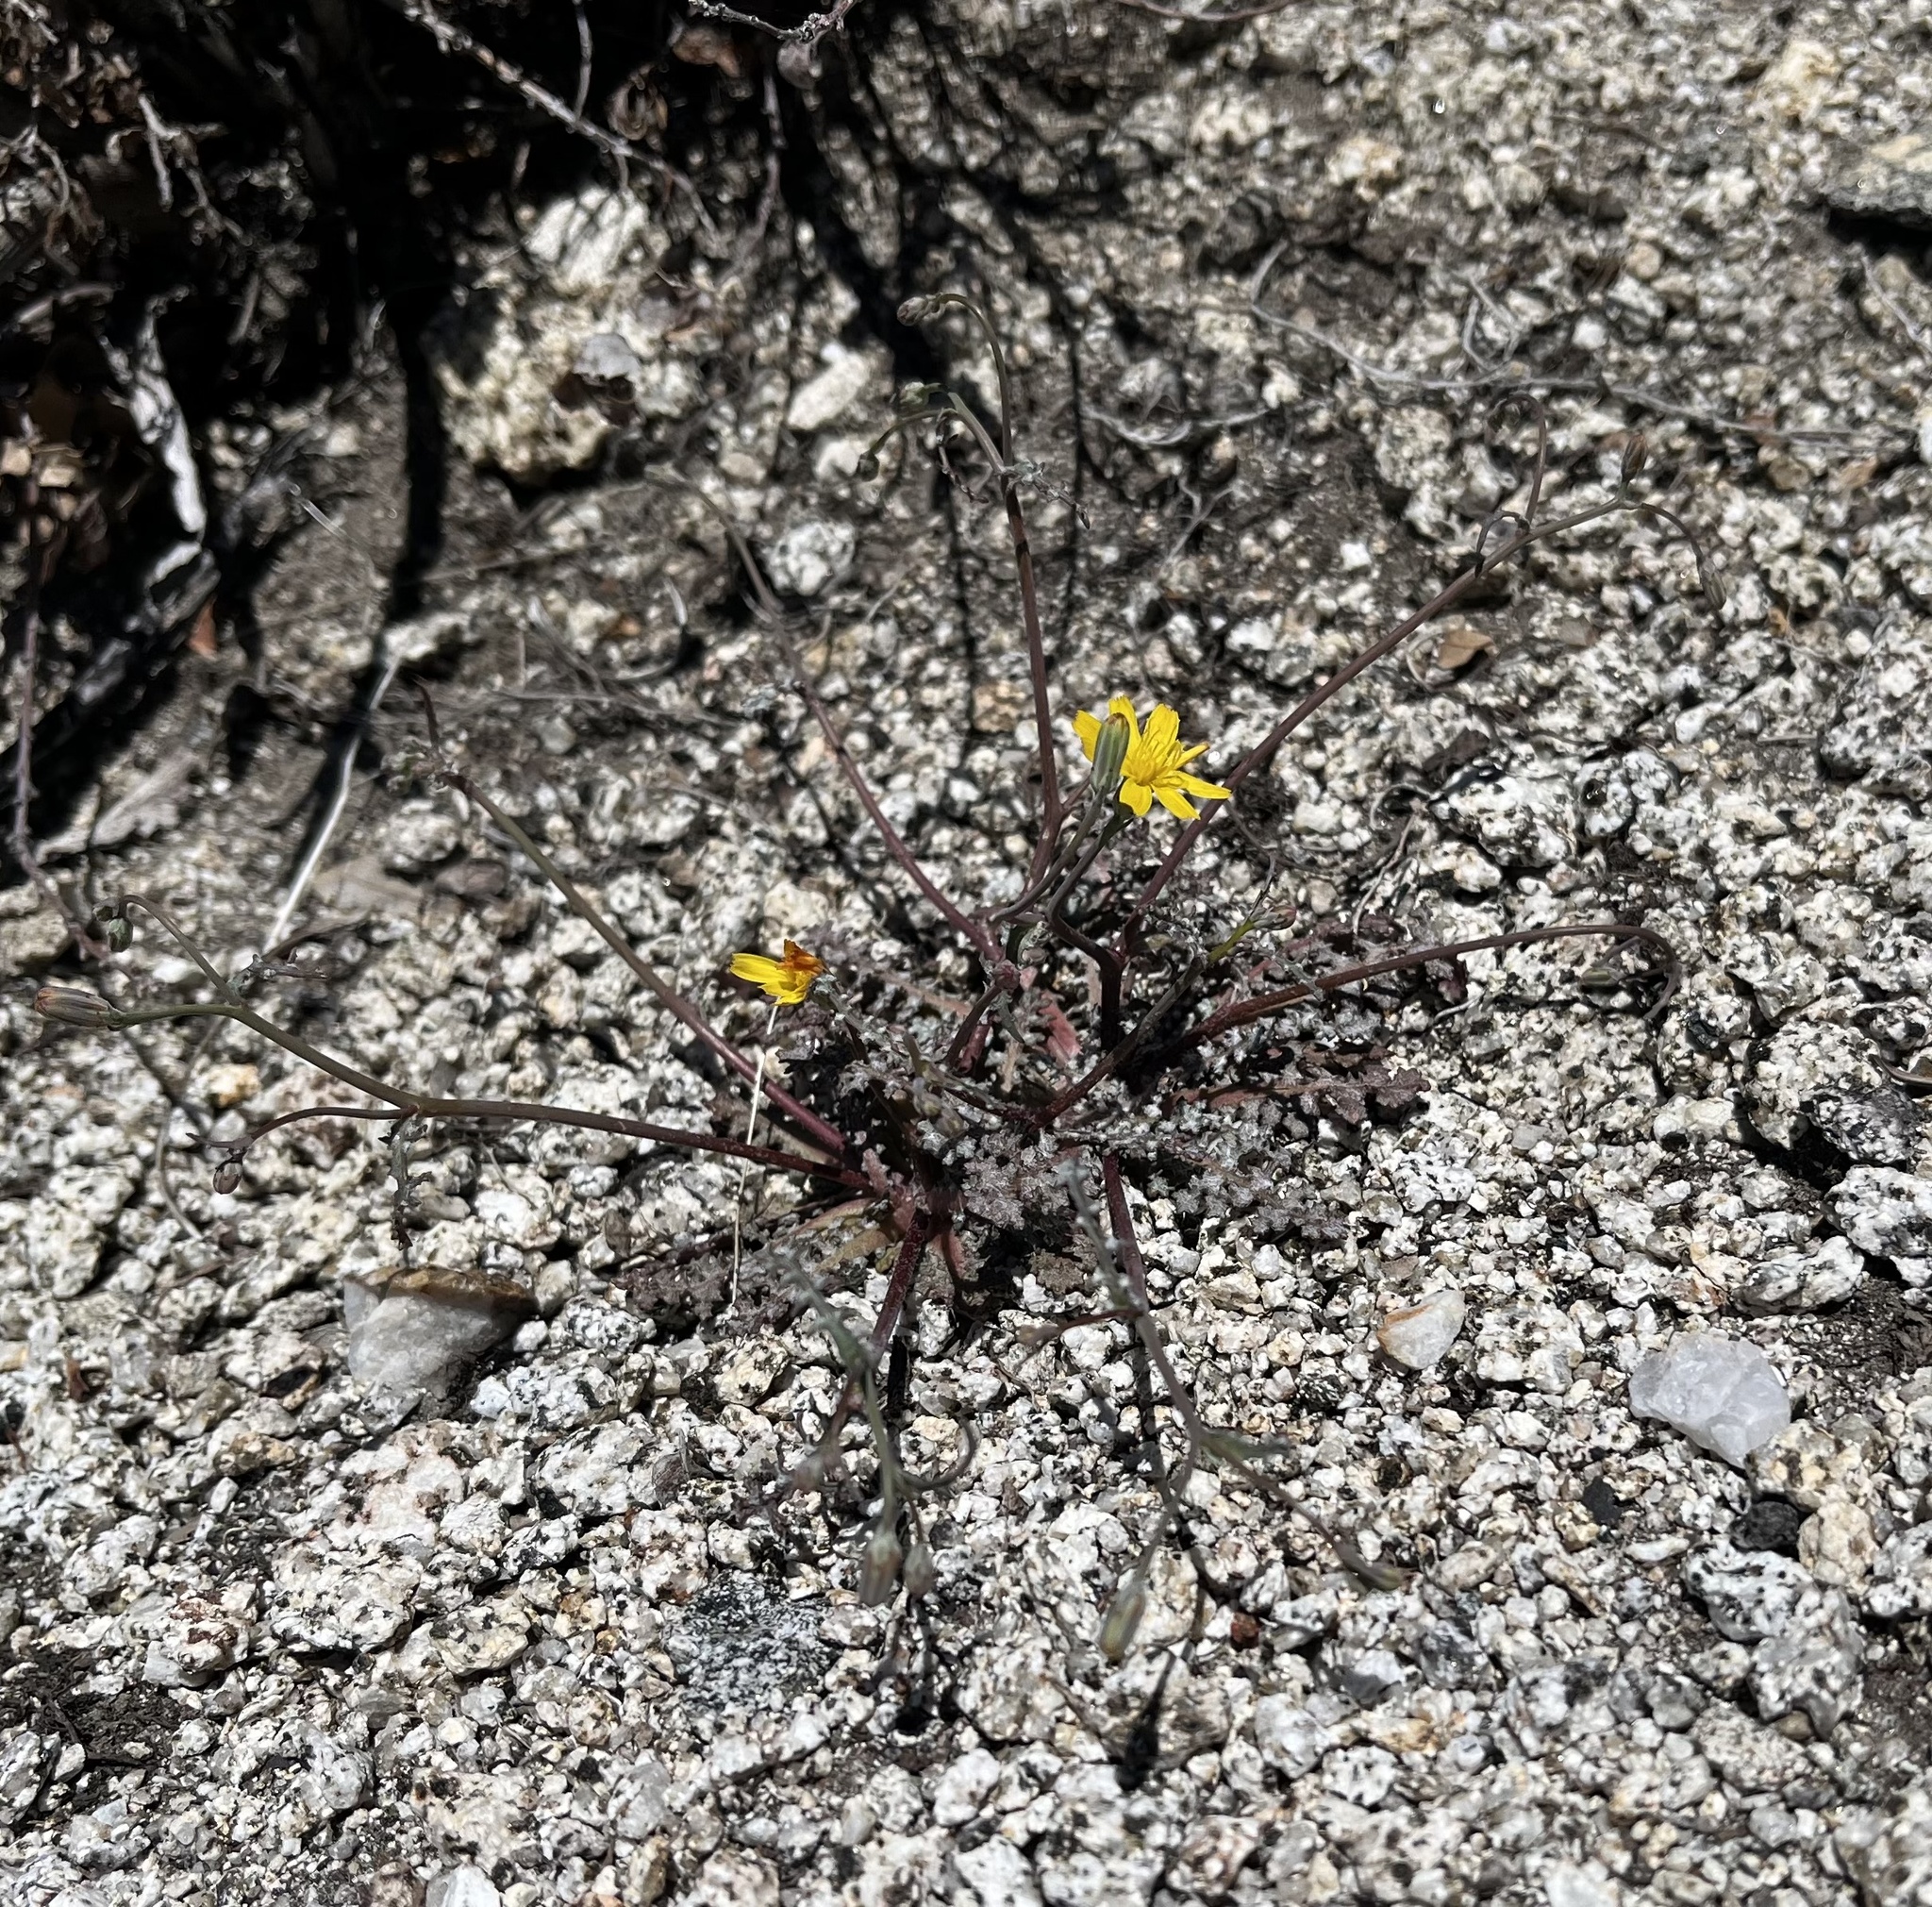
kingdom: Plantae
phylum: Tracheophyta
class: Magnoliopsida
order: Asterales
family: Asteraceae
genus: Malacothrix
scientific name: Malacothrix floccifera
